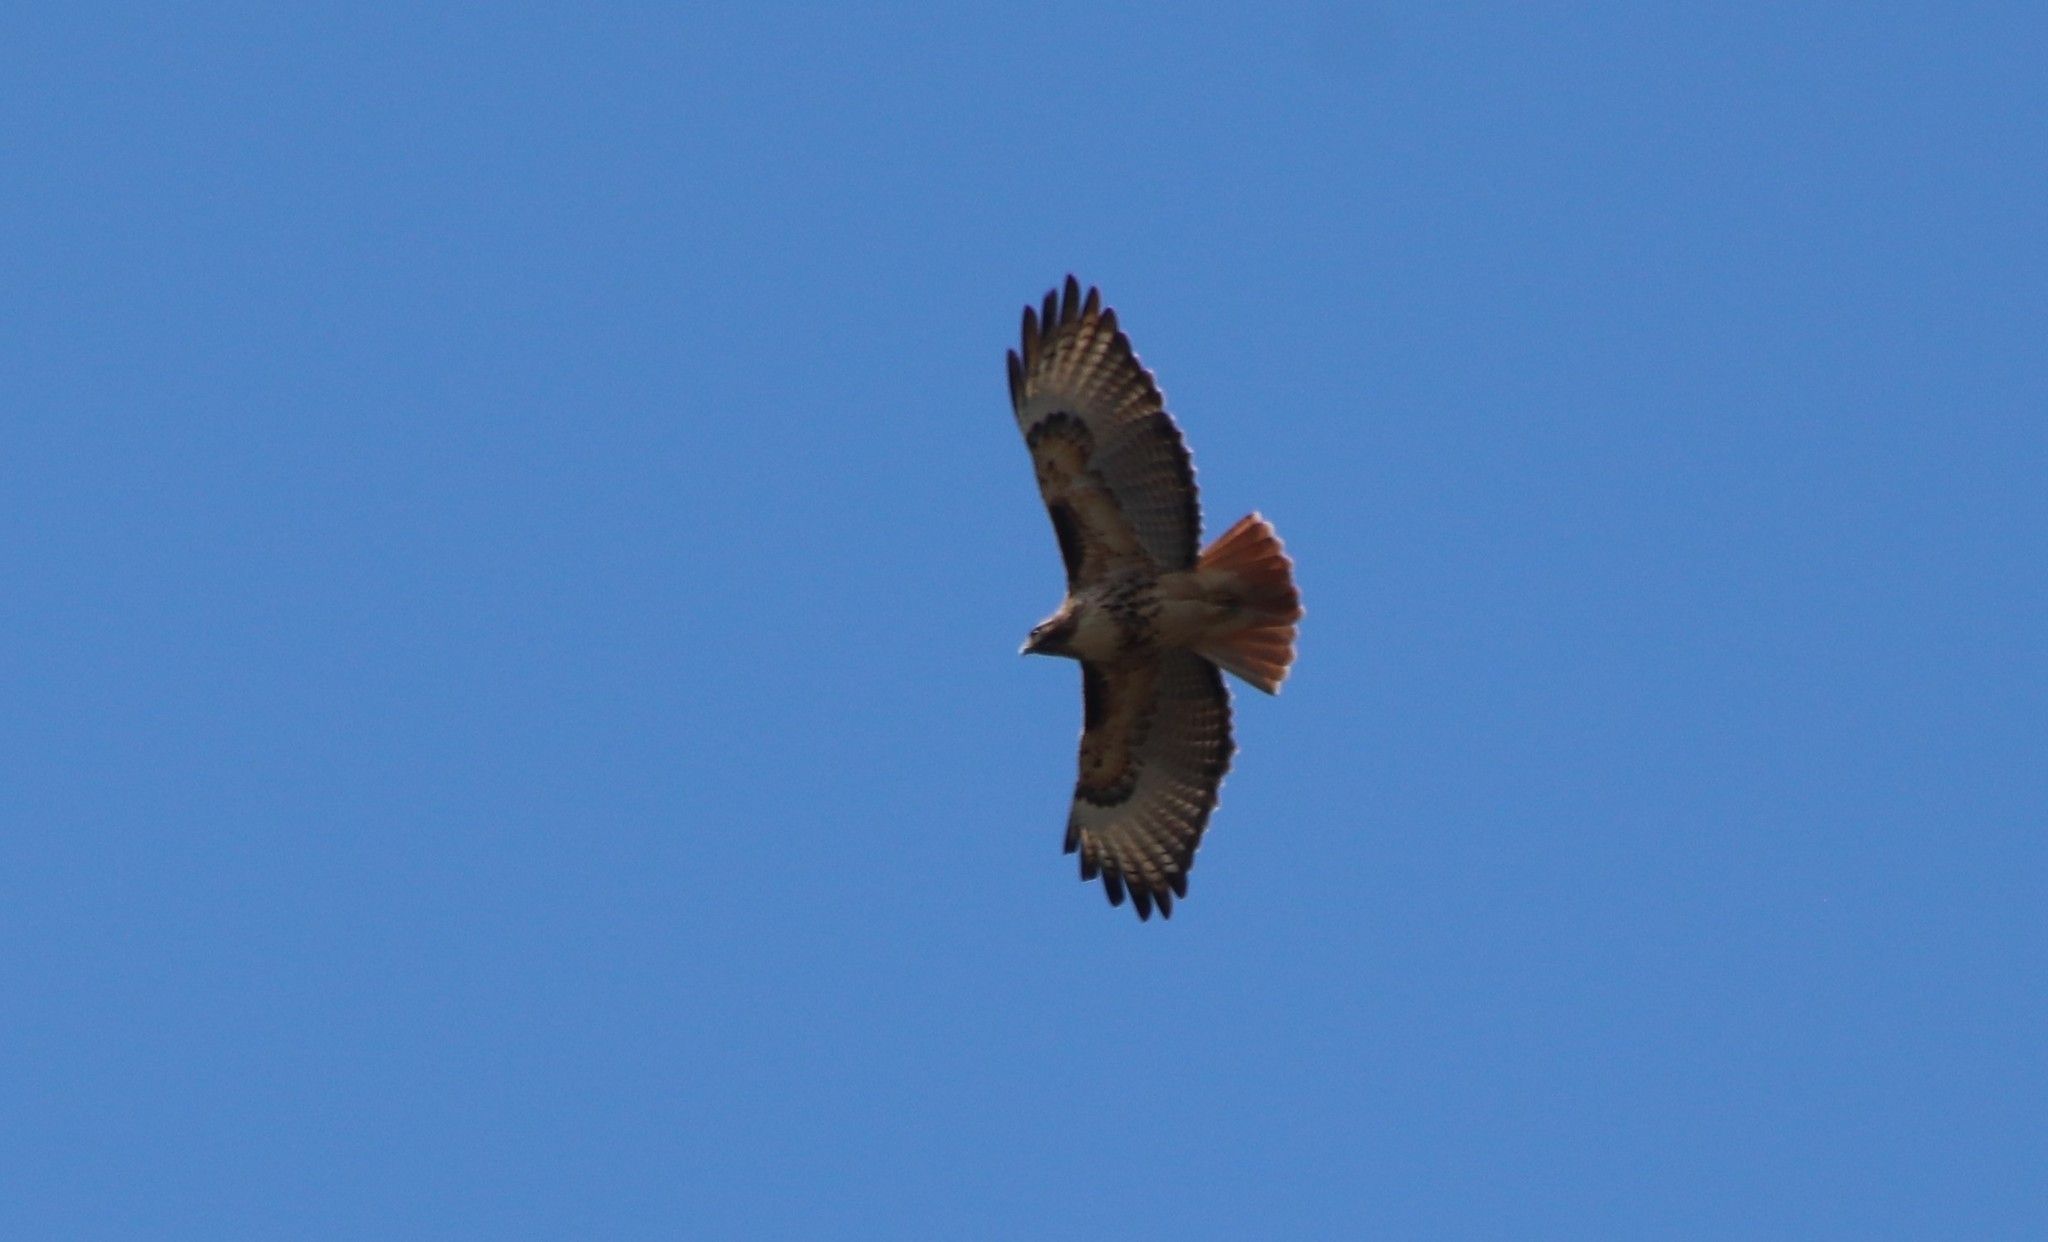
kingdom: Animalia
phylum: Chordata
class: Aves
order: Accipitriformes
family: Accipitridae
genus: Buteo
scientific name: Buteo jamaicensis
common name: Red-tailed hawk
